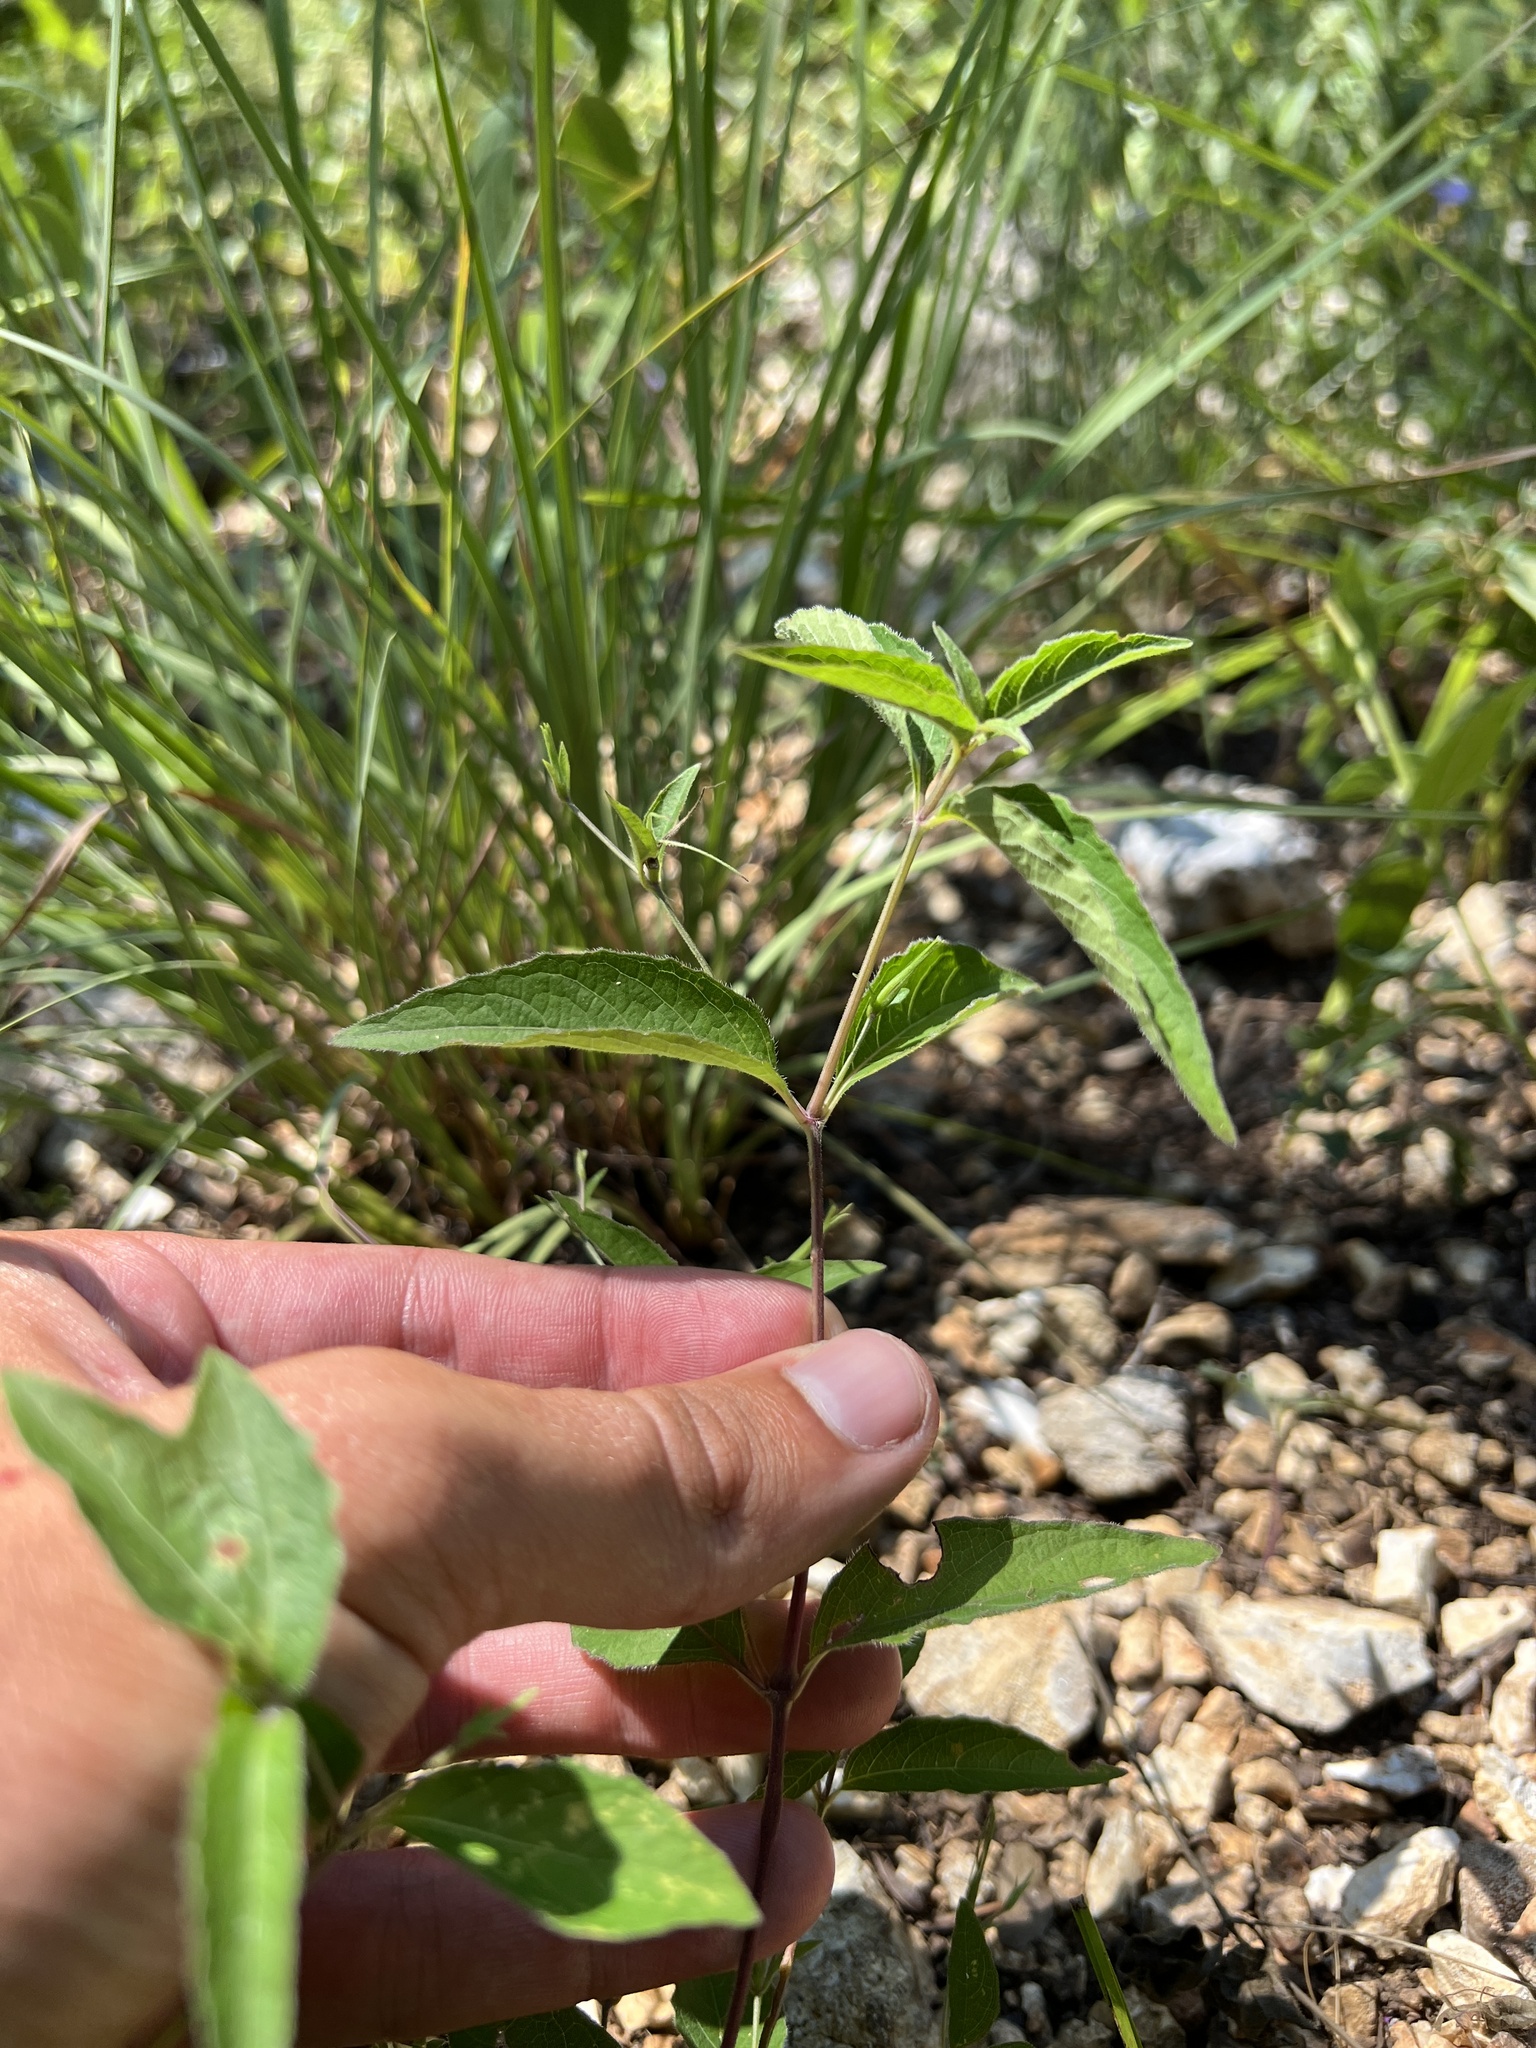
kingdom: Plantae
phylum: Tracheophyta
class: Magnoliopsida
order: Lamiales
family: Acanthaceae
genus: Ruellia
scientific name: Ruellia pedunculata
